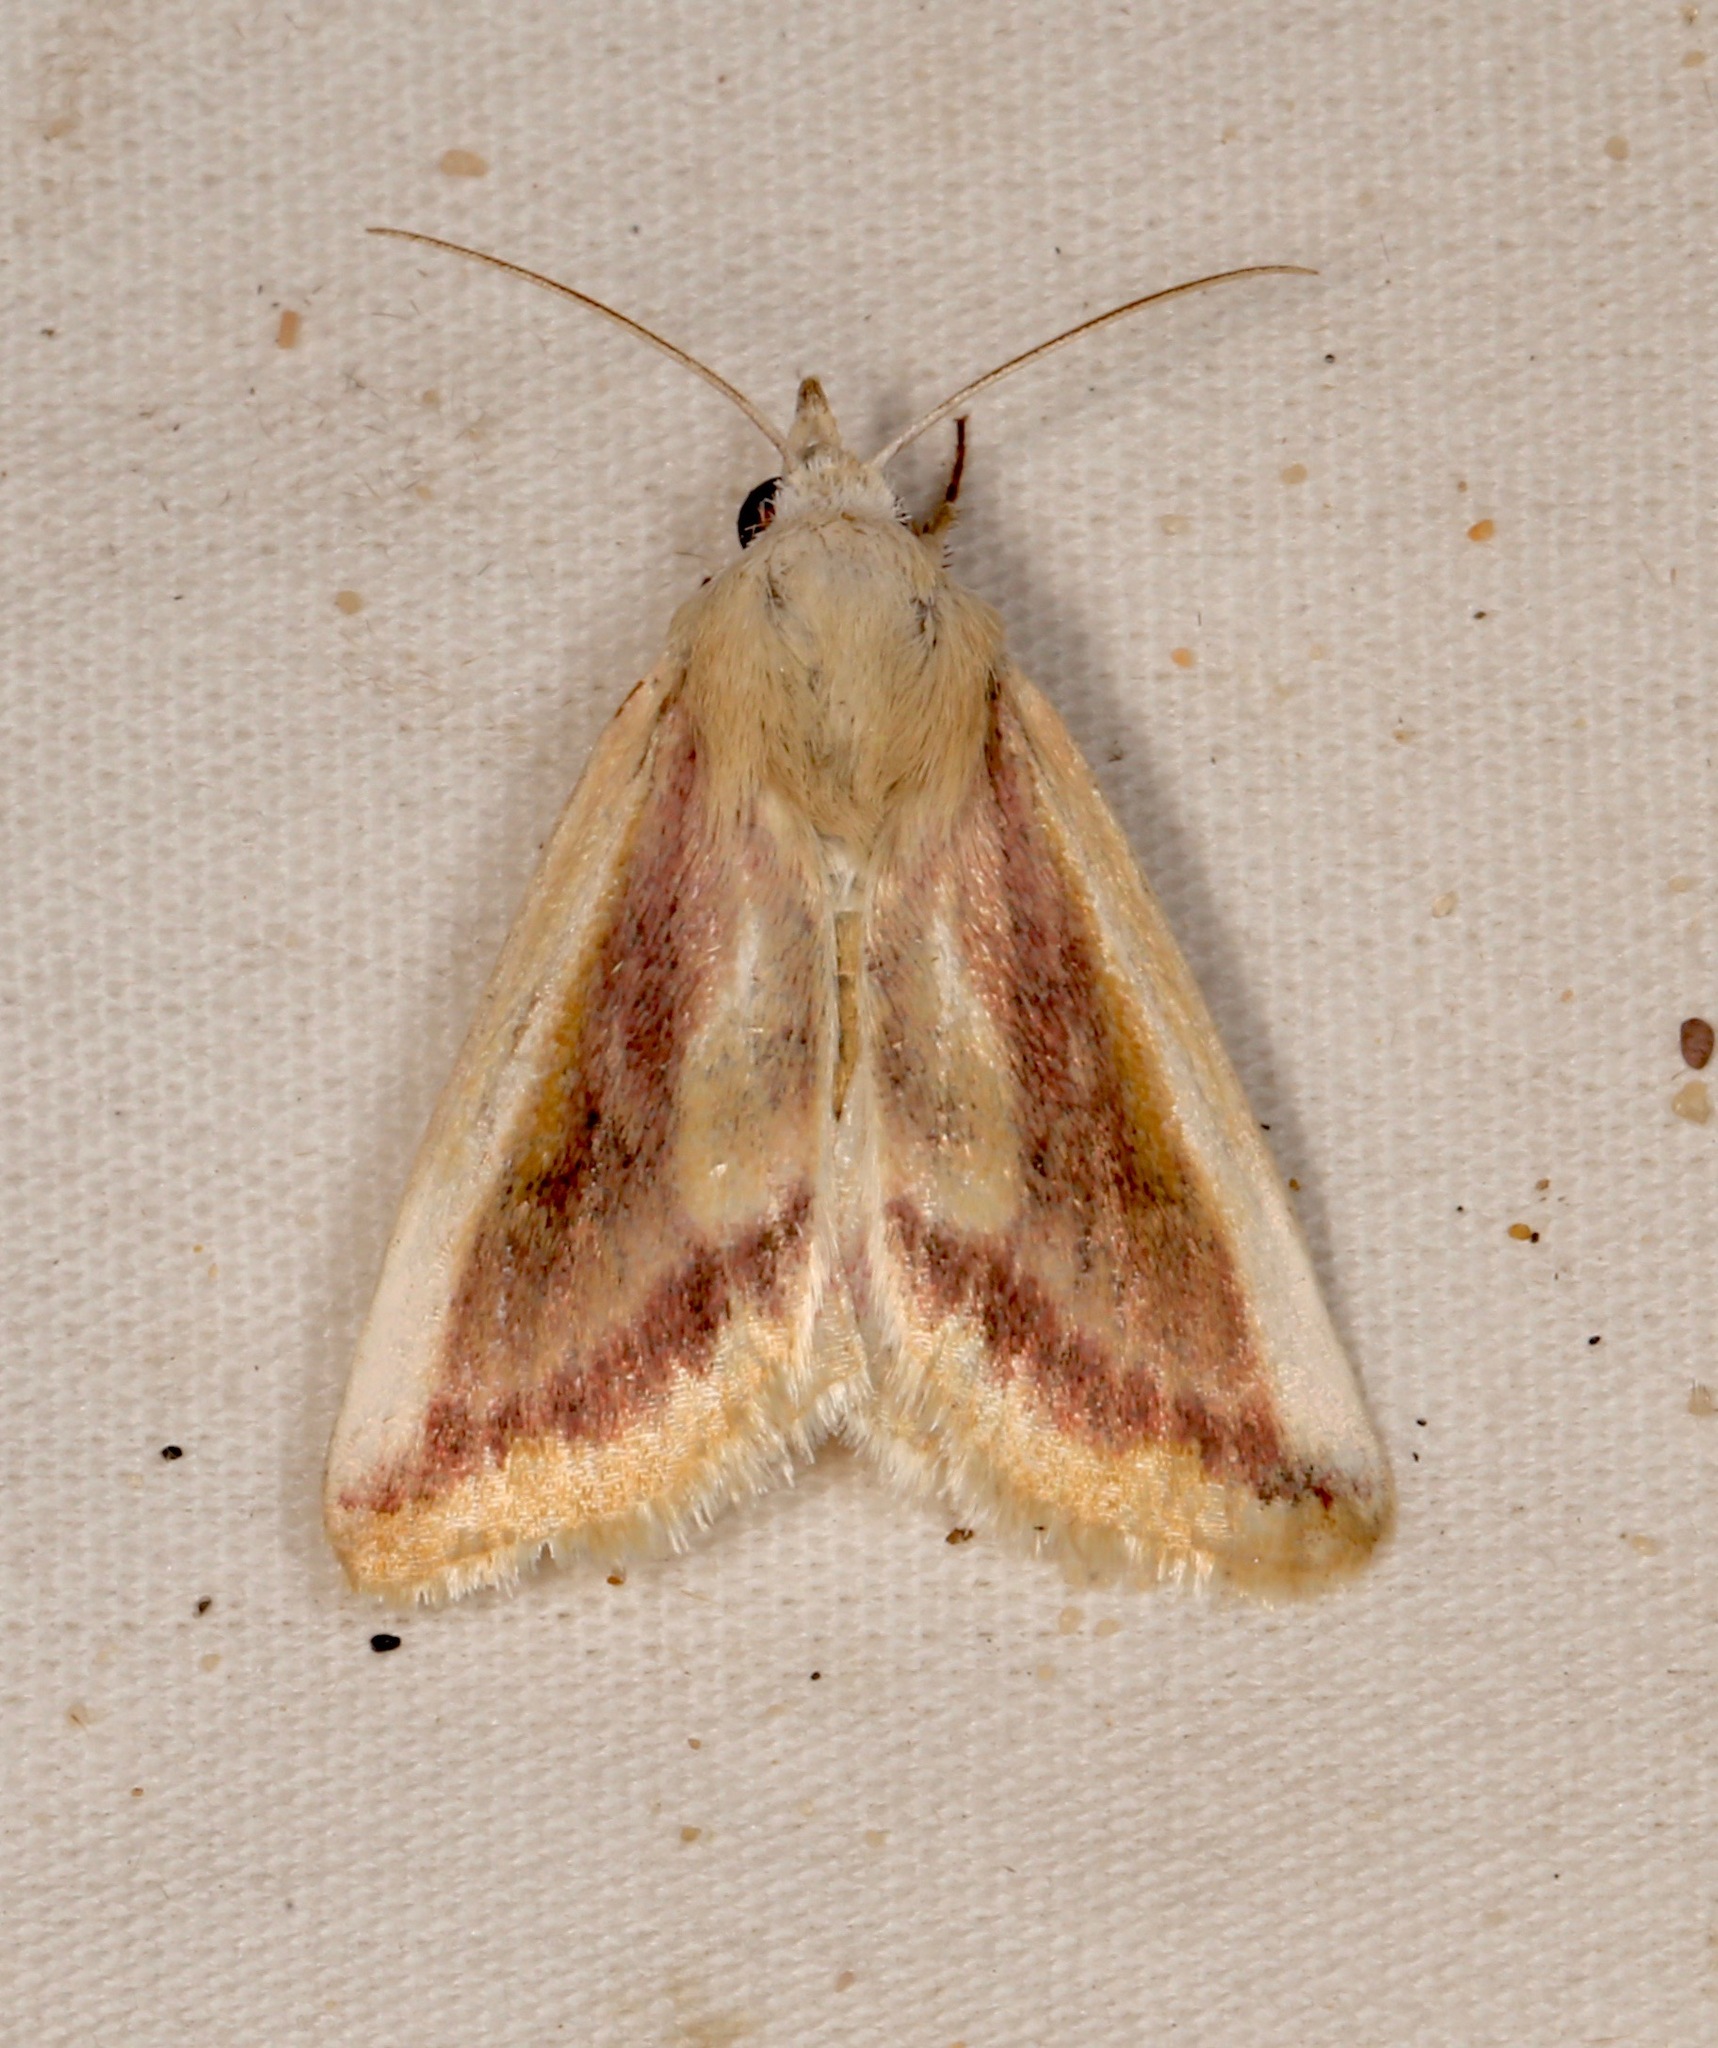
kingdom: Animalia
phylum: Arthropoda
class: Insecta
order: Lepidoptera
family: Noctuidae
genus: Schinia
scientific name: Schinia niveicosta
